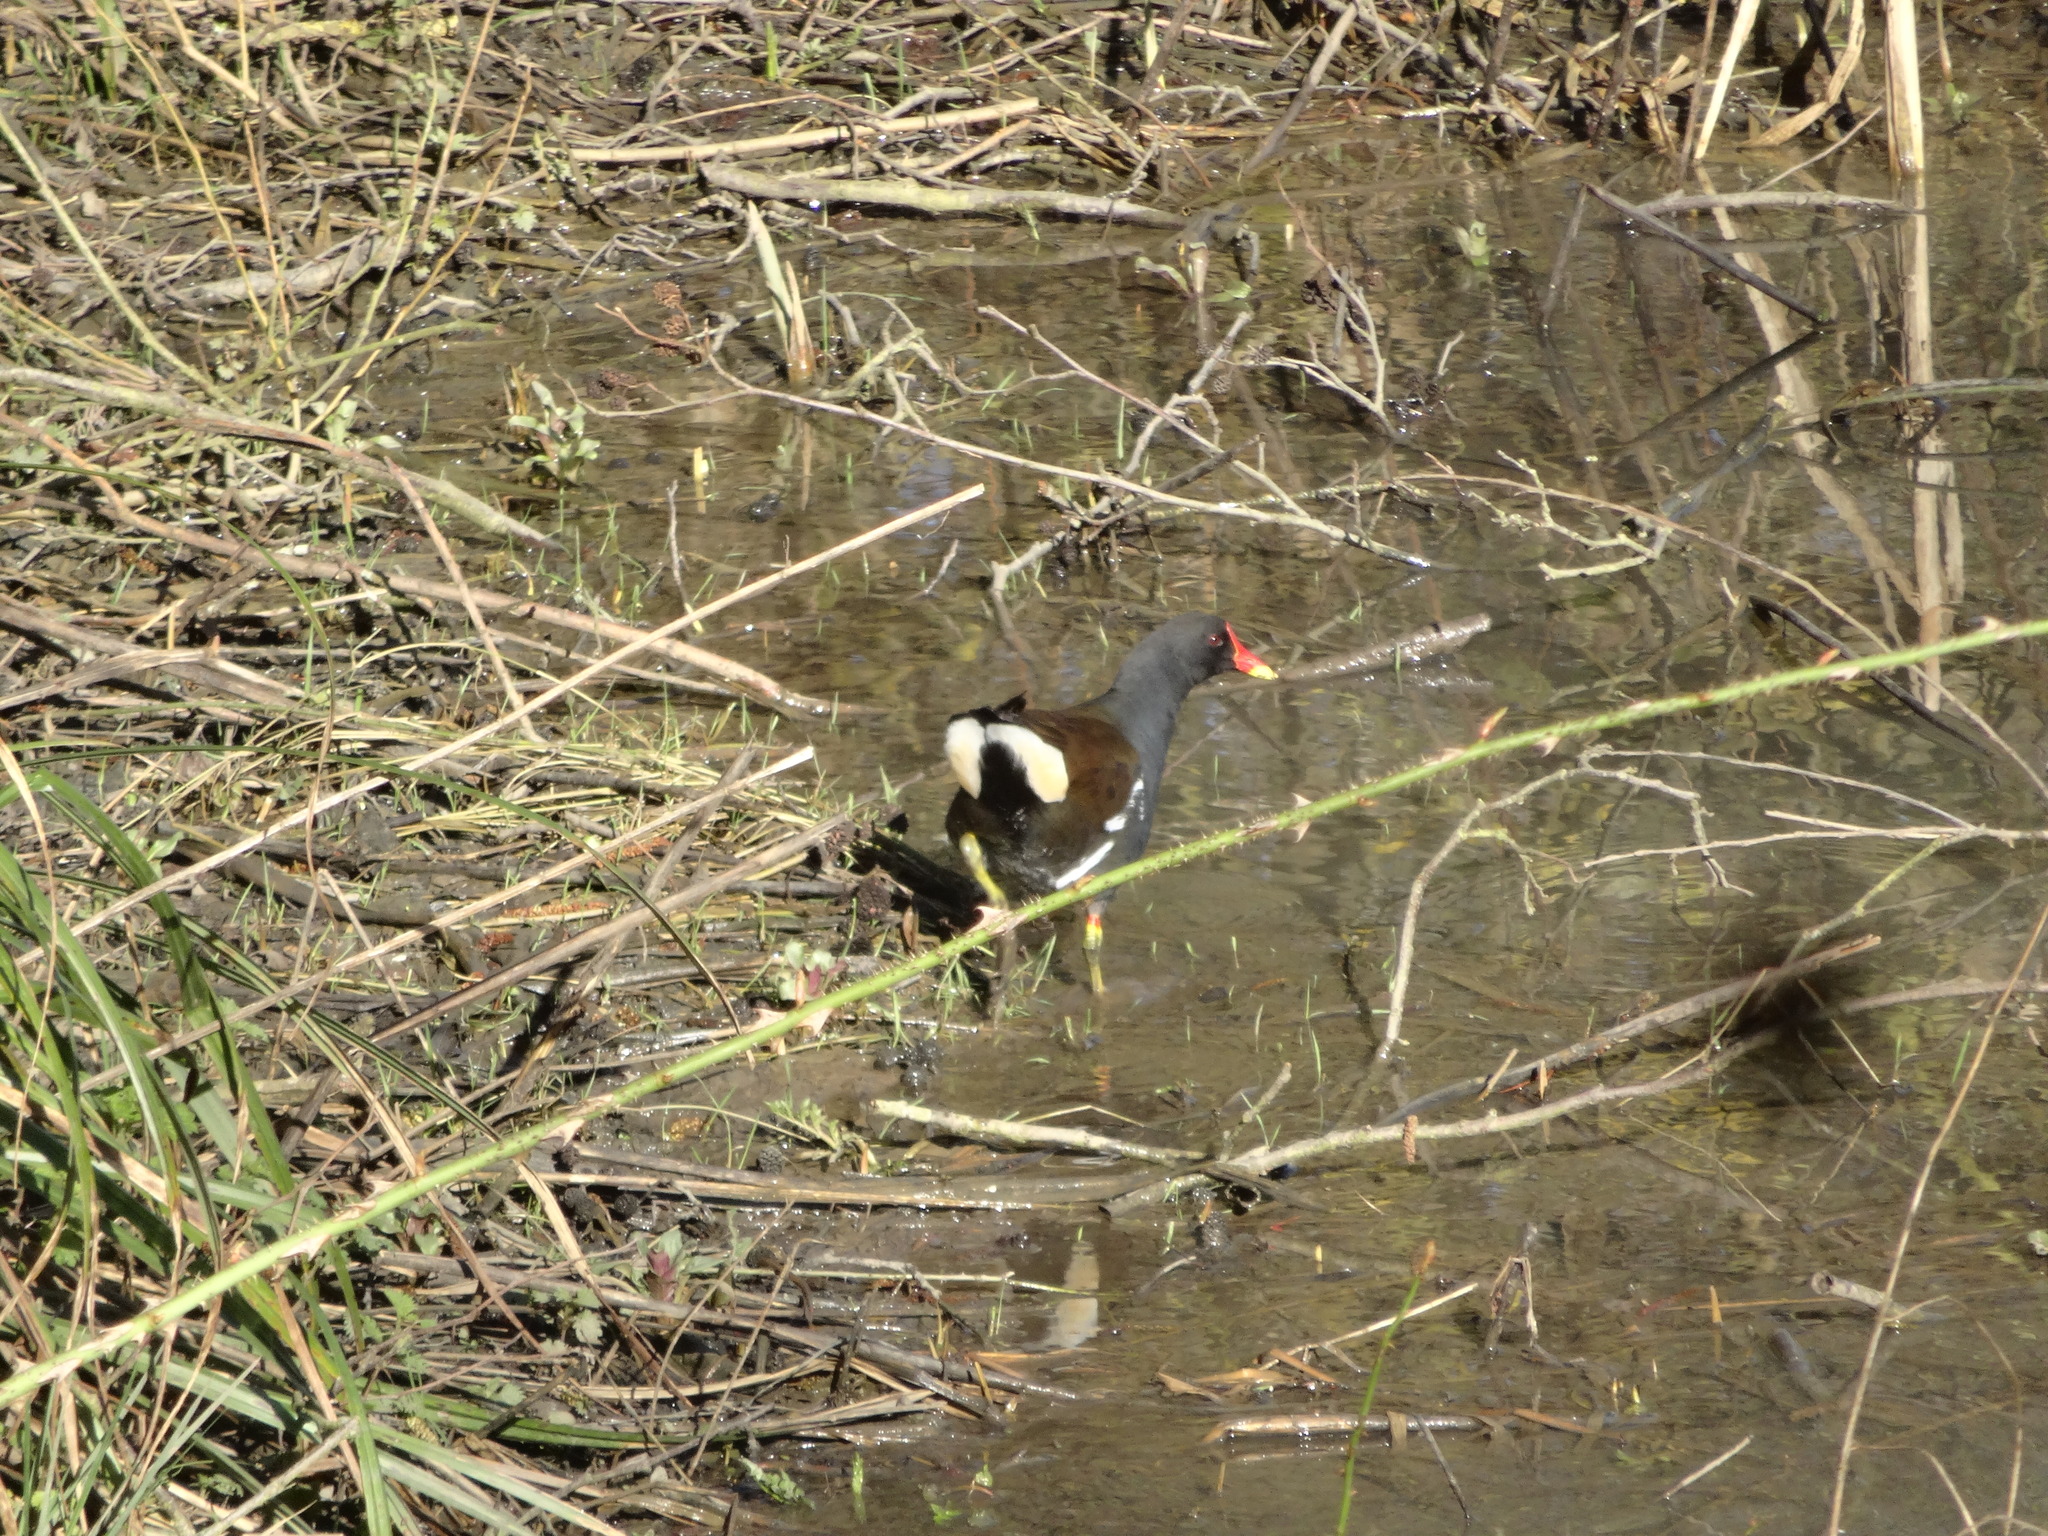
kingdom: Animalia
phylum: Chordata
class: Aves
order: Gruiformes
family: Rallidae
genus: Gallinula
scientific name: Gallinula chloropus
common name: Common moorhen
